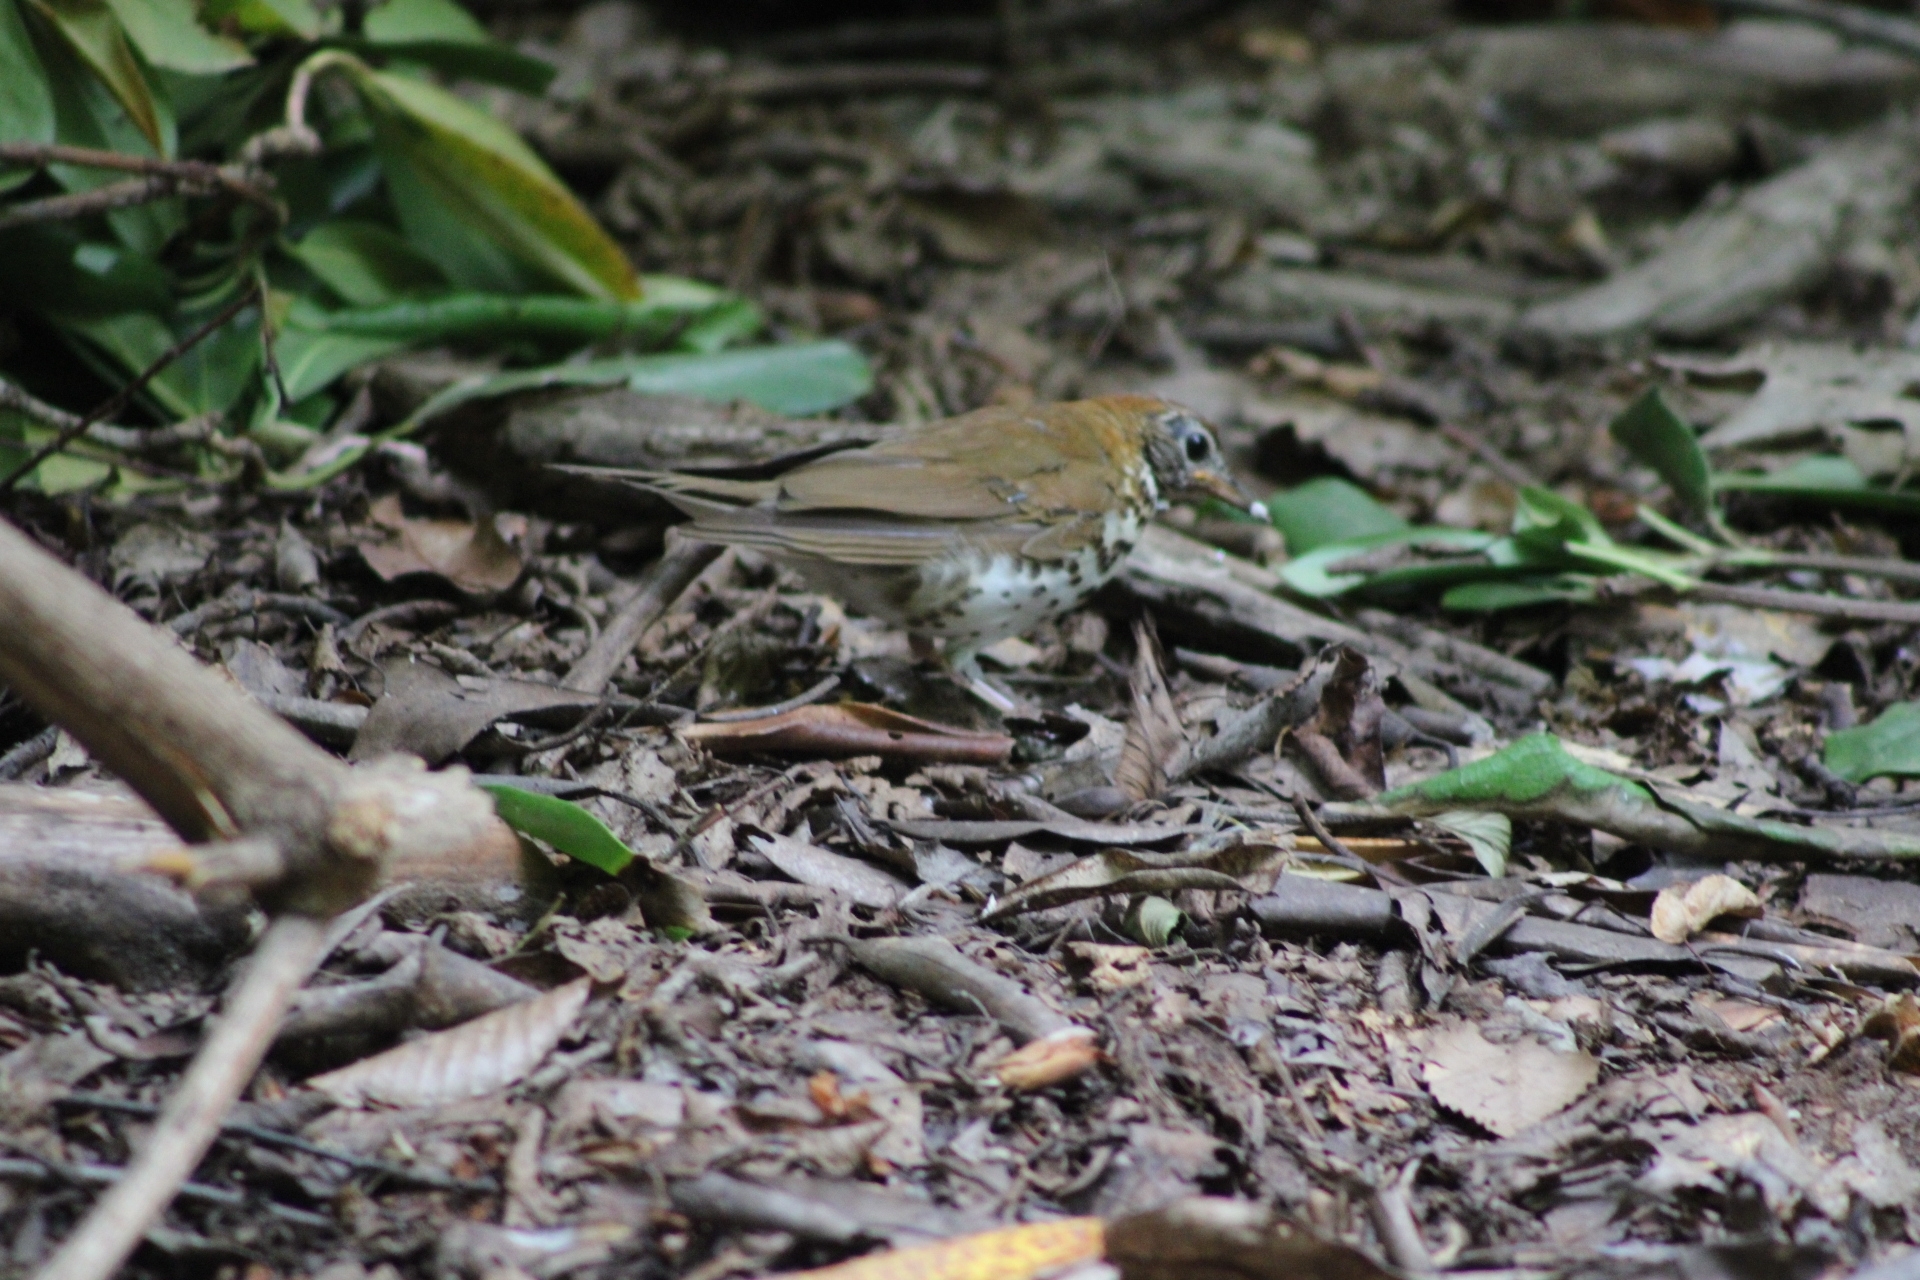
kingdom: Animalia
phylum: Chordata
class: Aves
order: Passeriformes
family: Turdidae
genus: Hylocichla
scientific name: Hylocichla mustelina
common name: Wood thrush
